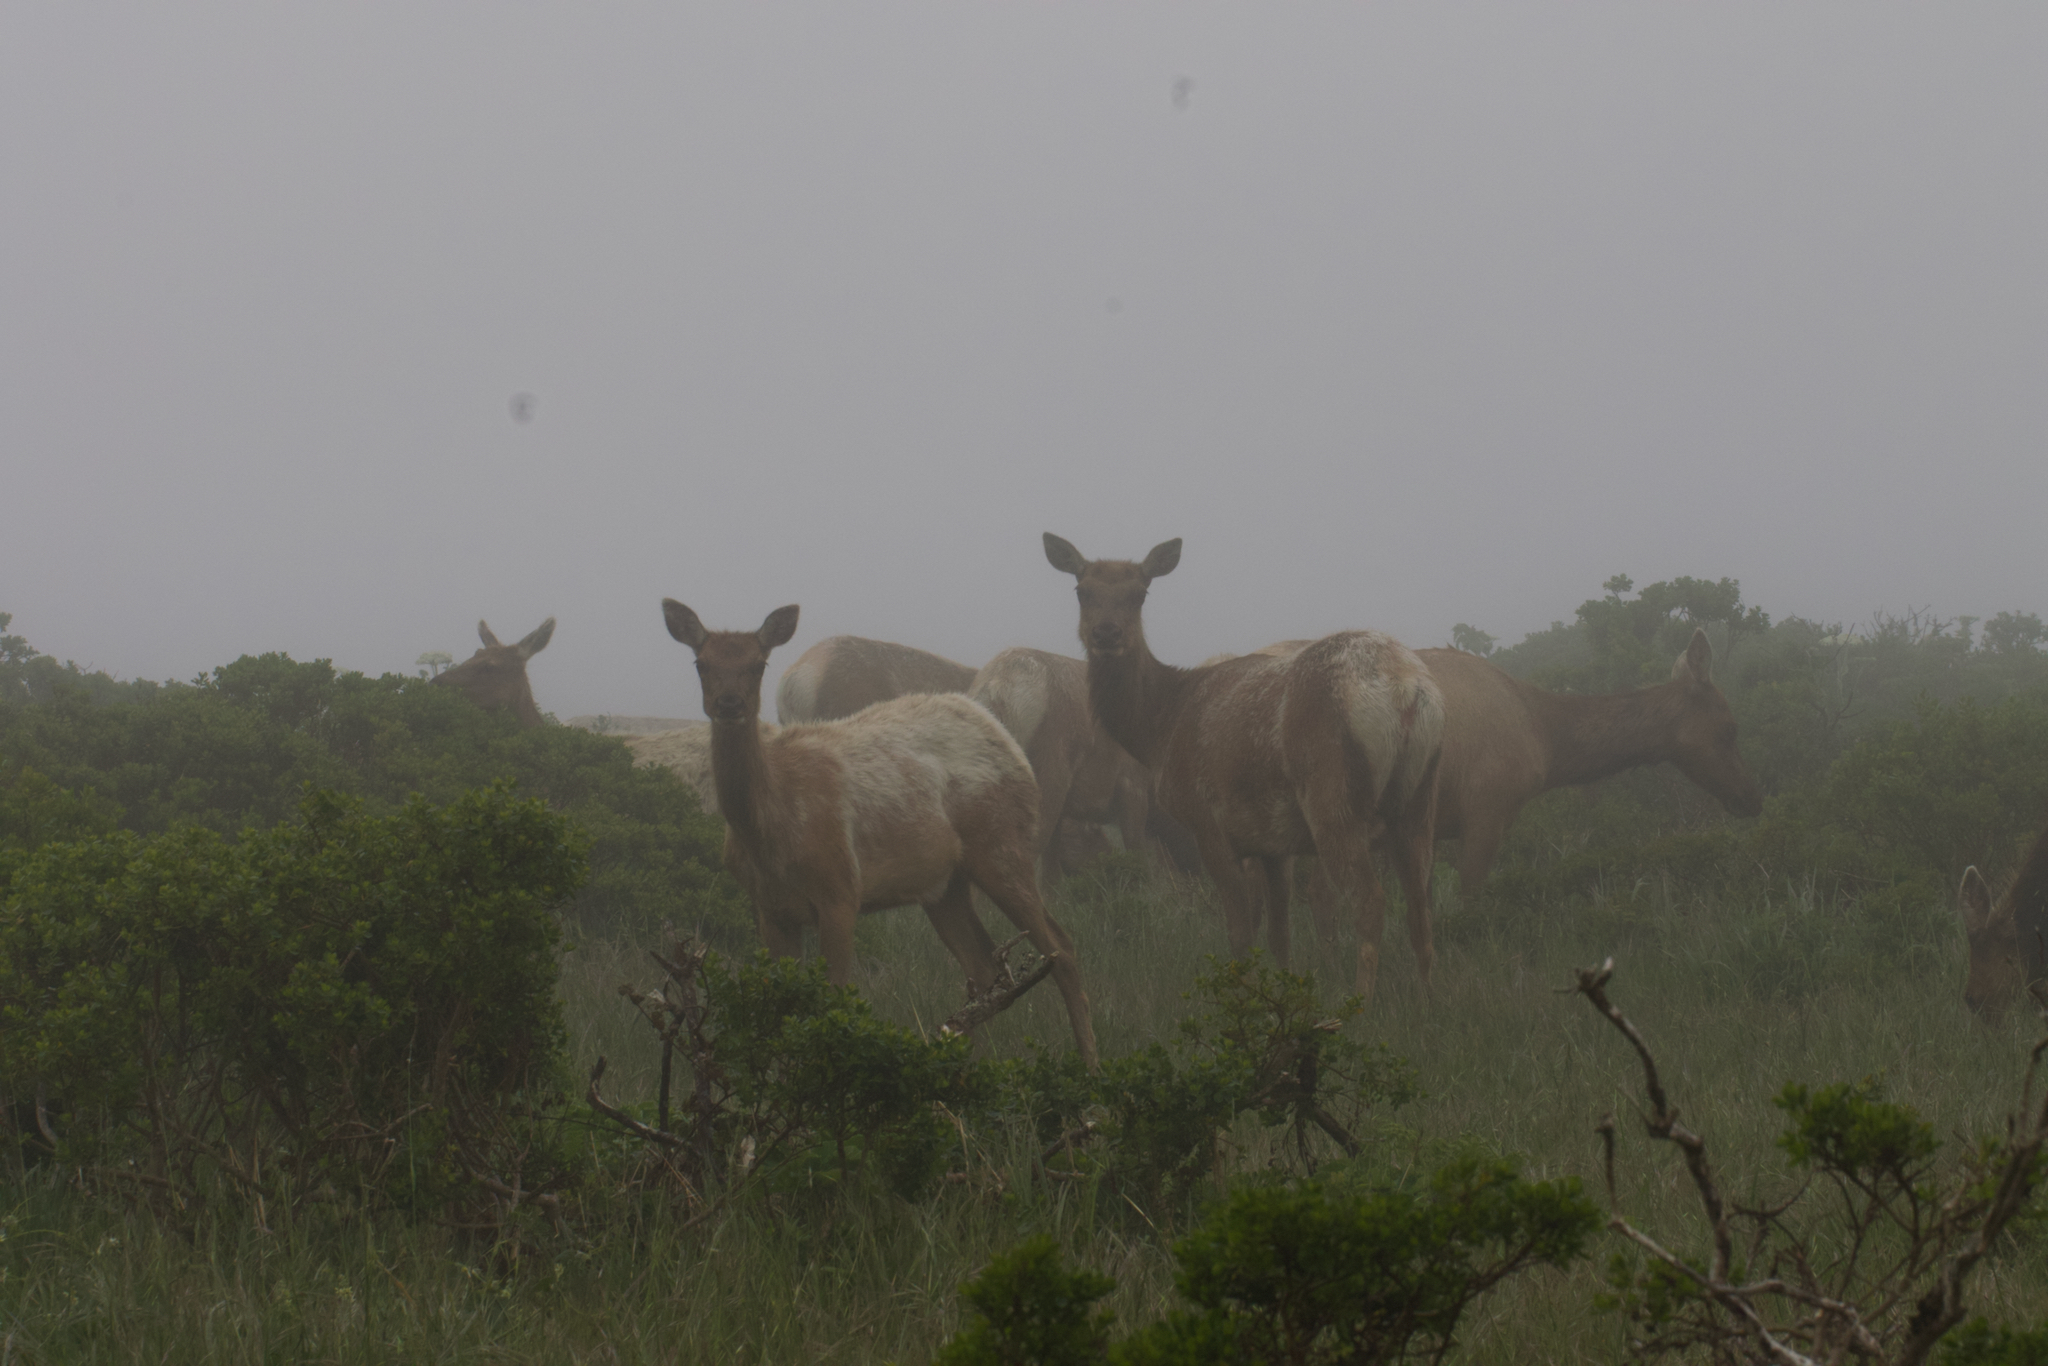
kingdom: Animalia
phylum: Chordata
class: Mammalia
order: Artiodactyla
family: Cervidae
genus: Cervus
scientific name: Cervus elaphus
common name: Red deer
